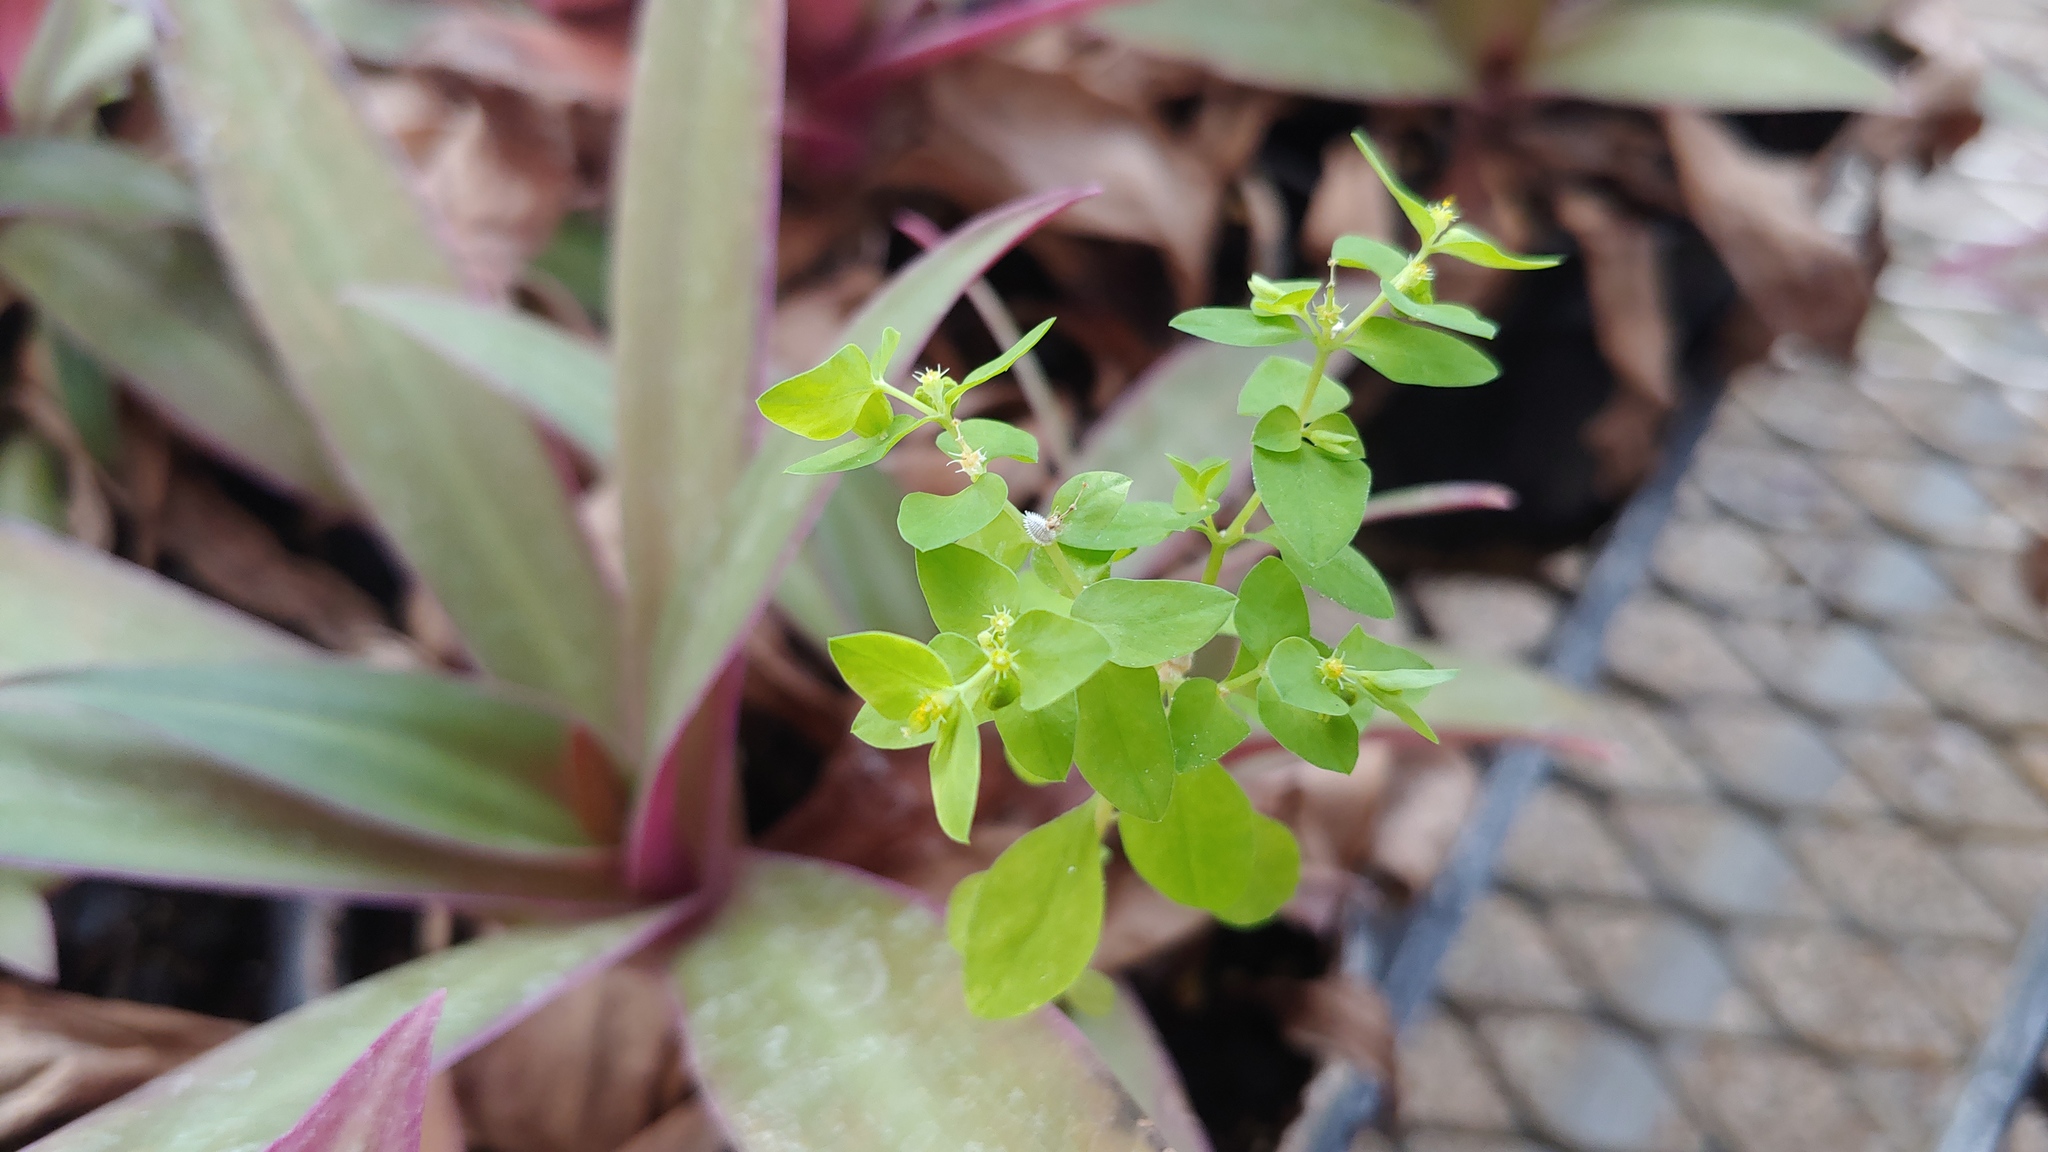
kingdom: Plantae
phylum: Tracheophyta
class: Magnoliopsida
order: Malpighiales
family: Euphorbiaceae
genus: Euphorbia
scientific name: Euphorbia peplus
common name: Petty spurge
